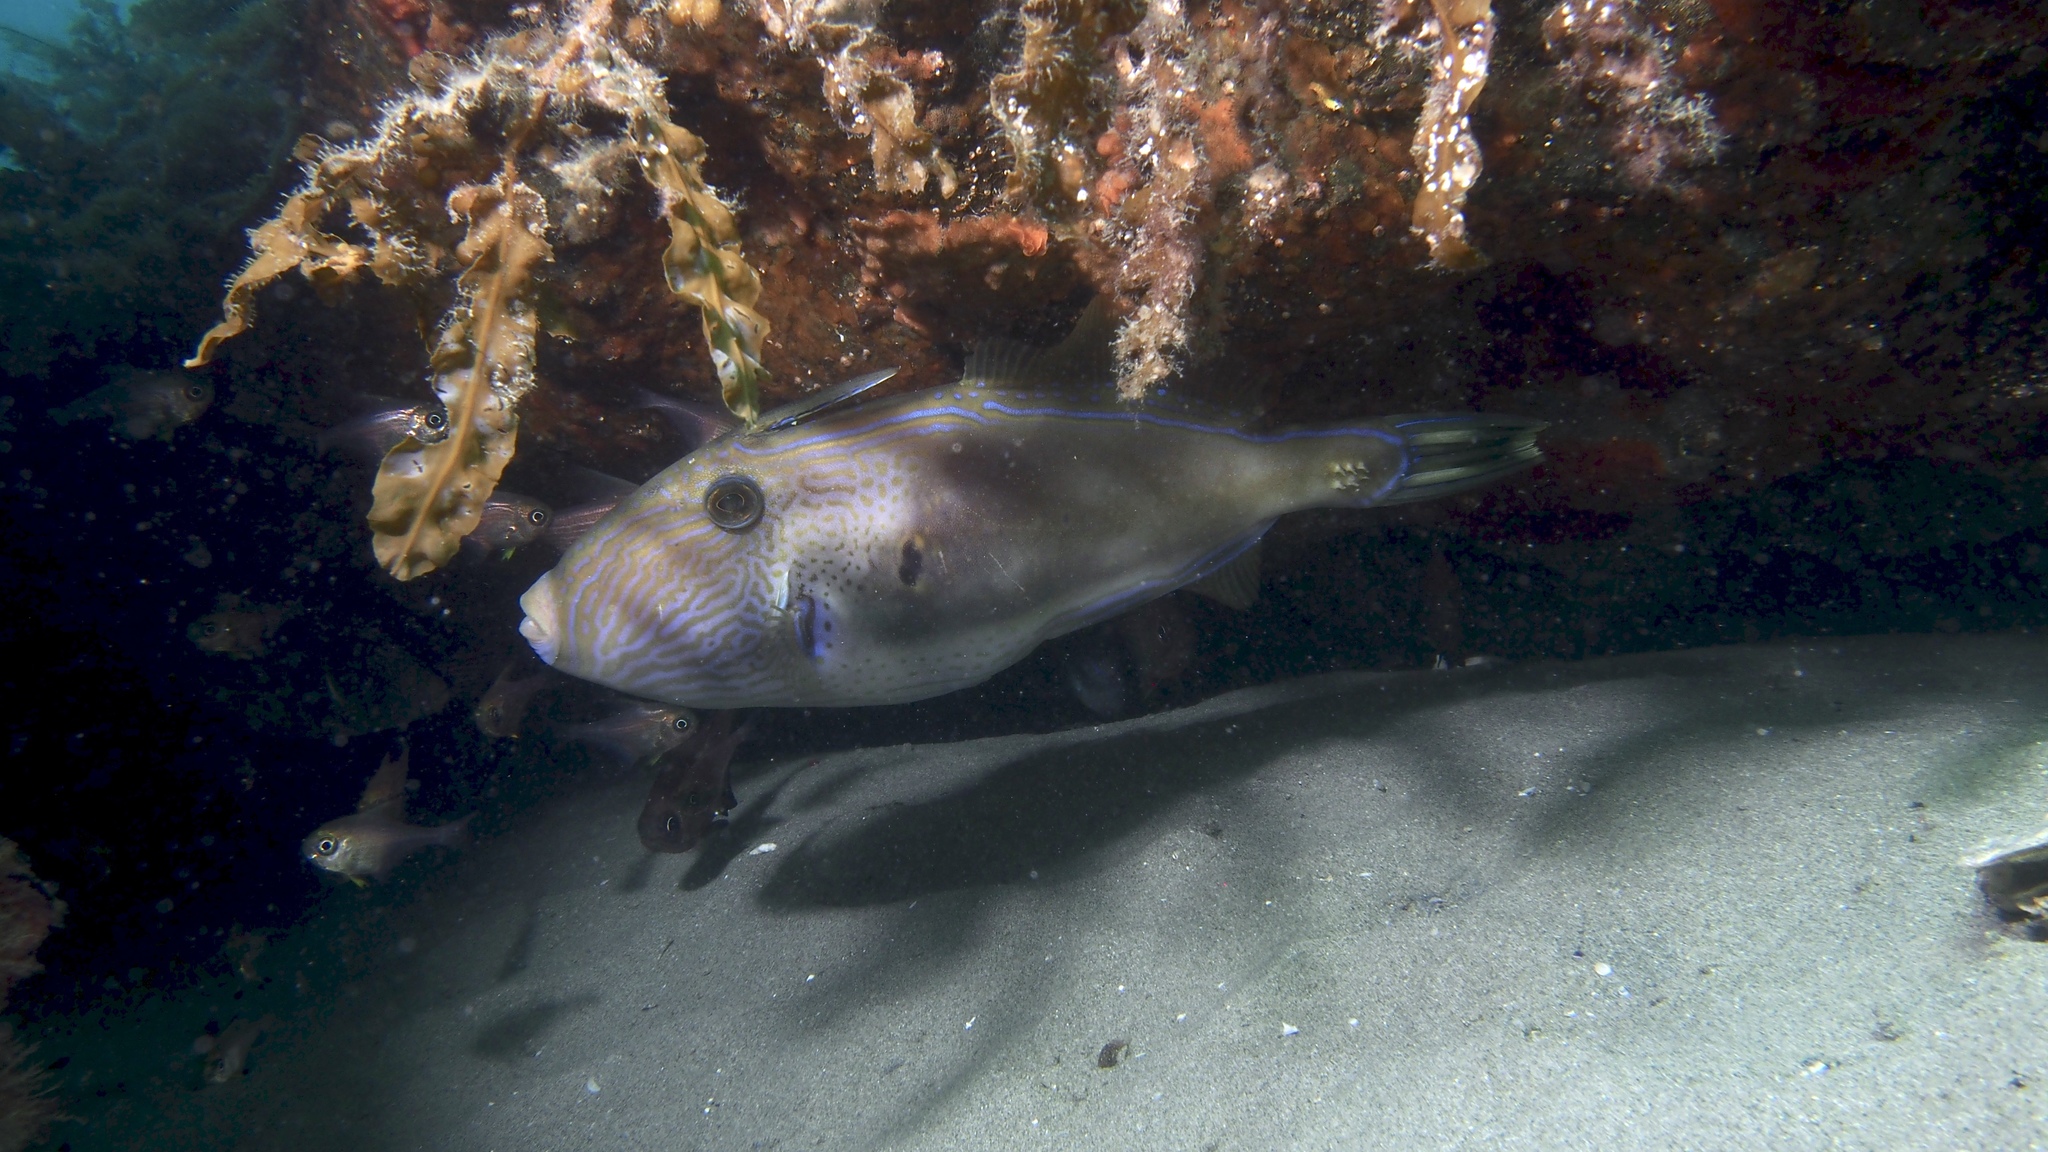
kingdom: Animalia
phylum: Chordata
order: Tetraodontiformes
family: Monacanthidae
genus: Meuschenia
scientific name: Meuschenia hippocrepis
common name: Horse-shoe leatherjacket
